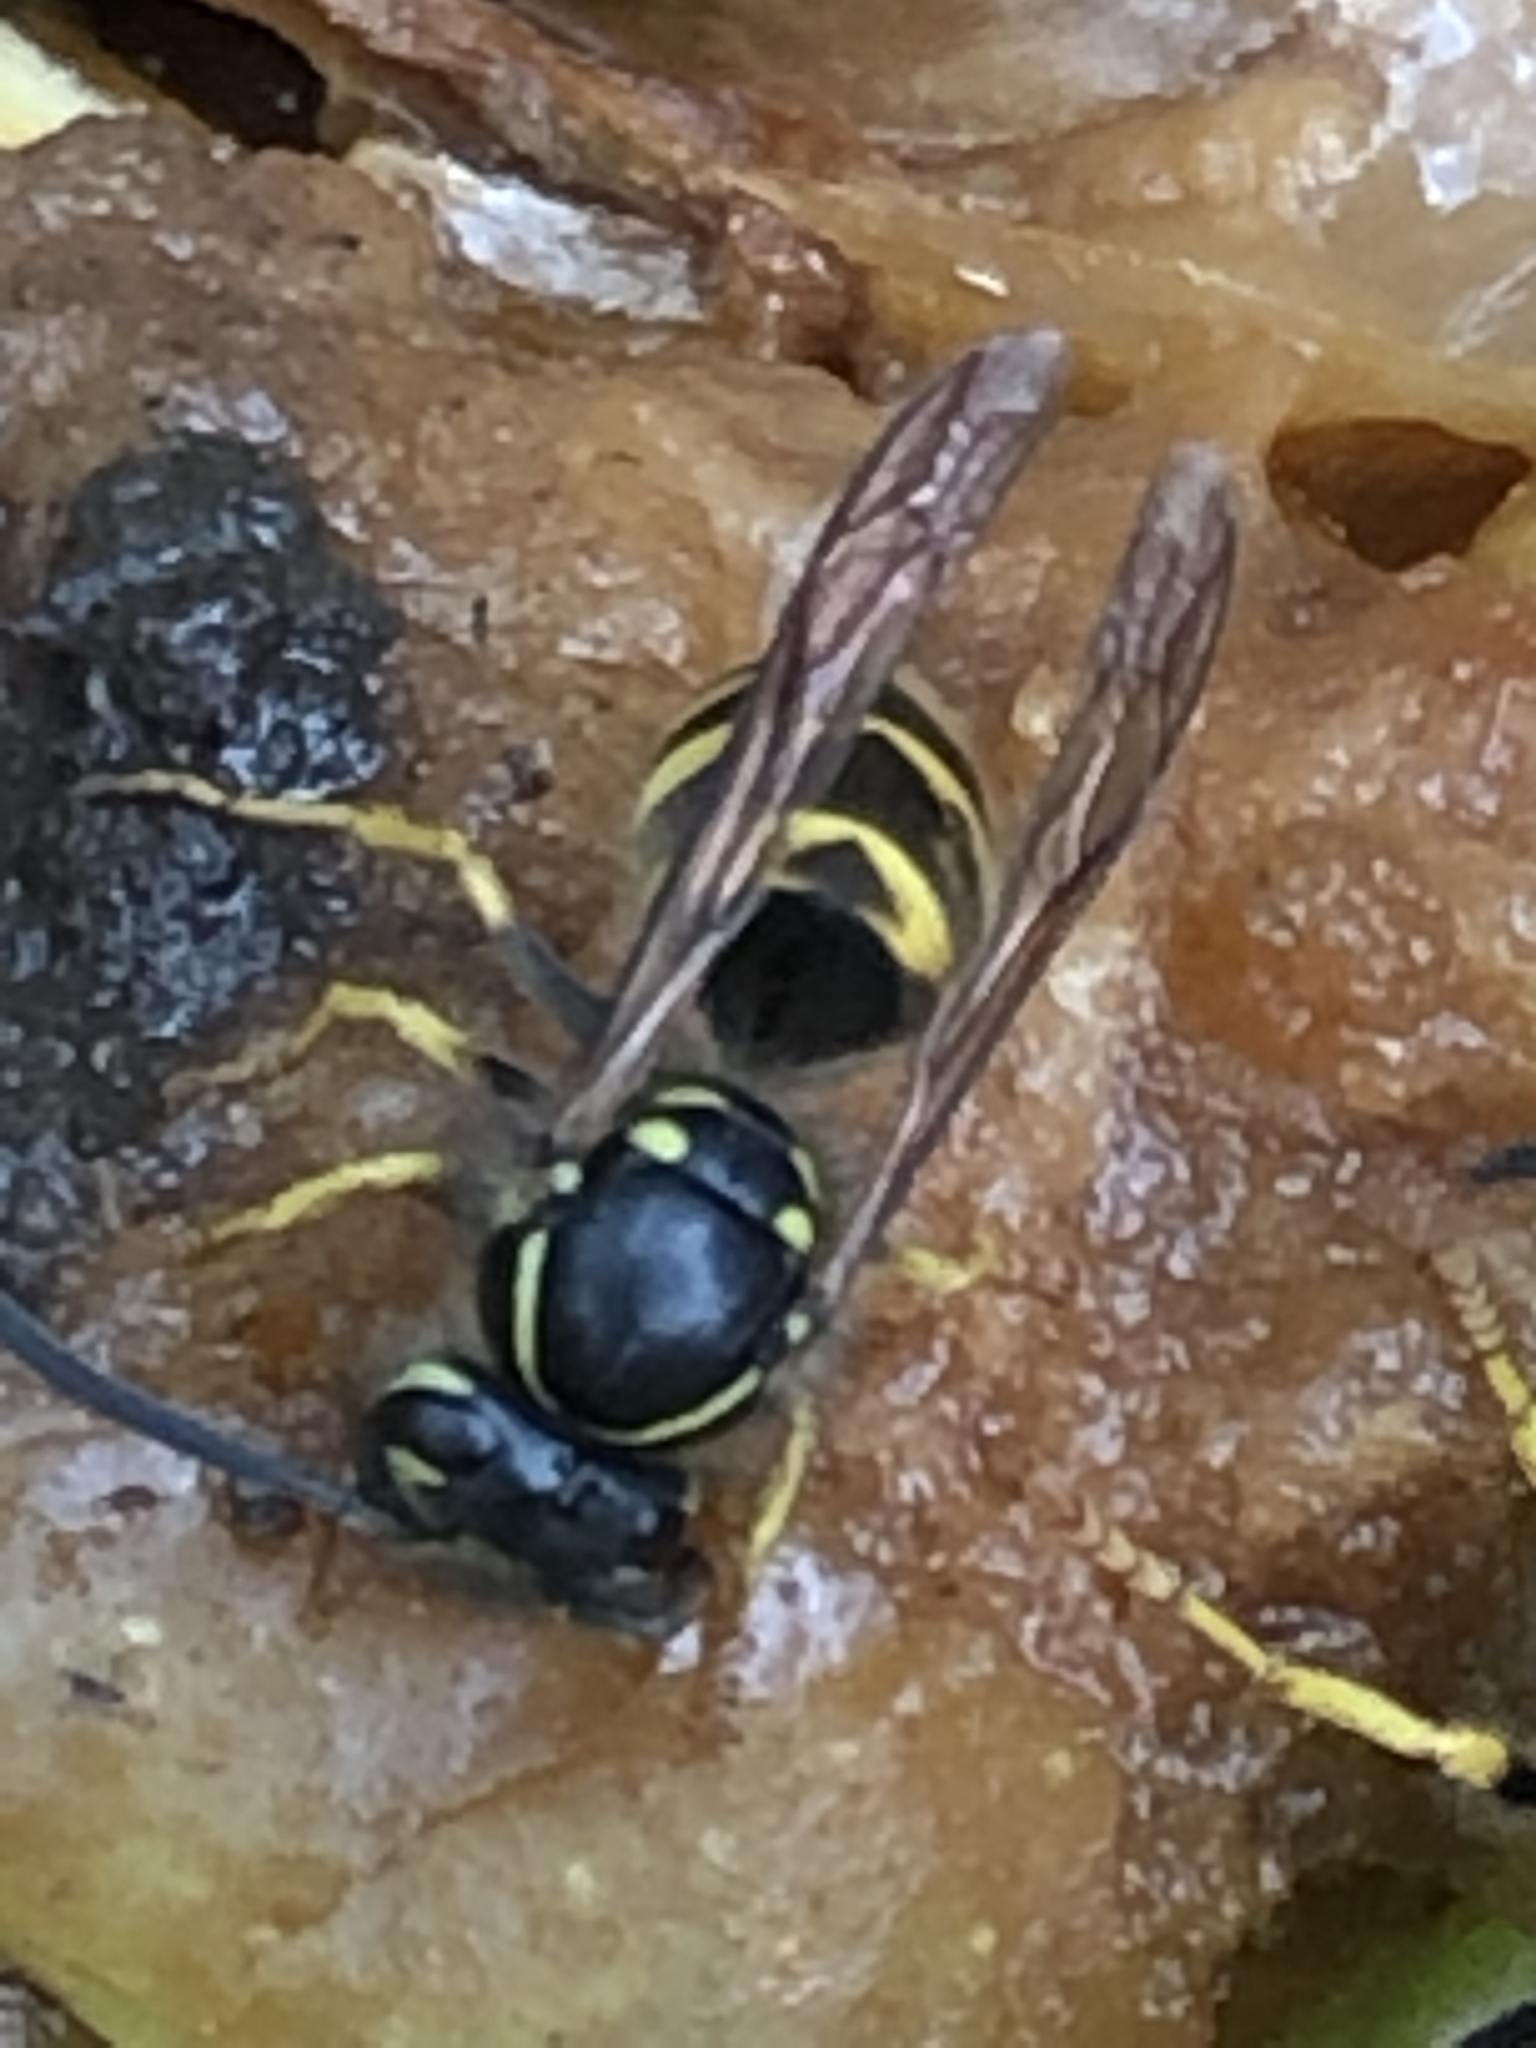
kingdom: Animalia
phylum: Arthropoda
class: Insecta
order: Hymenoptera
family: Vespidae
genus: Vespula
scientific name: Vespula alascensis
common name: Alaska yellowjacket
